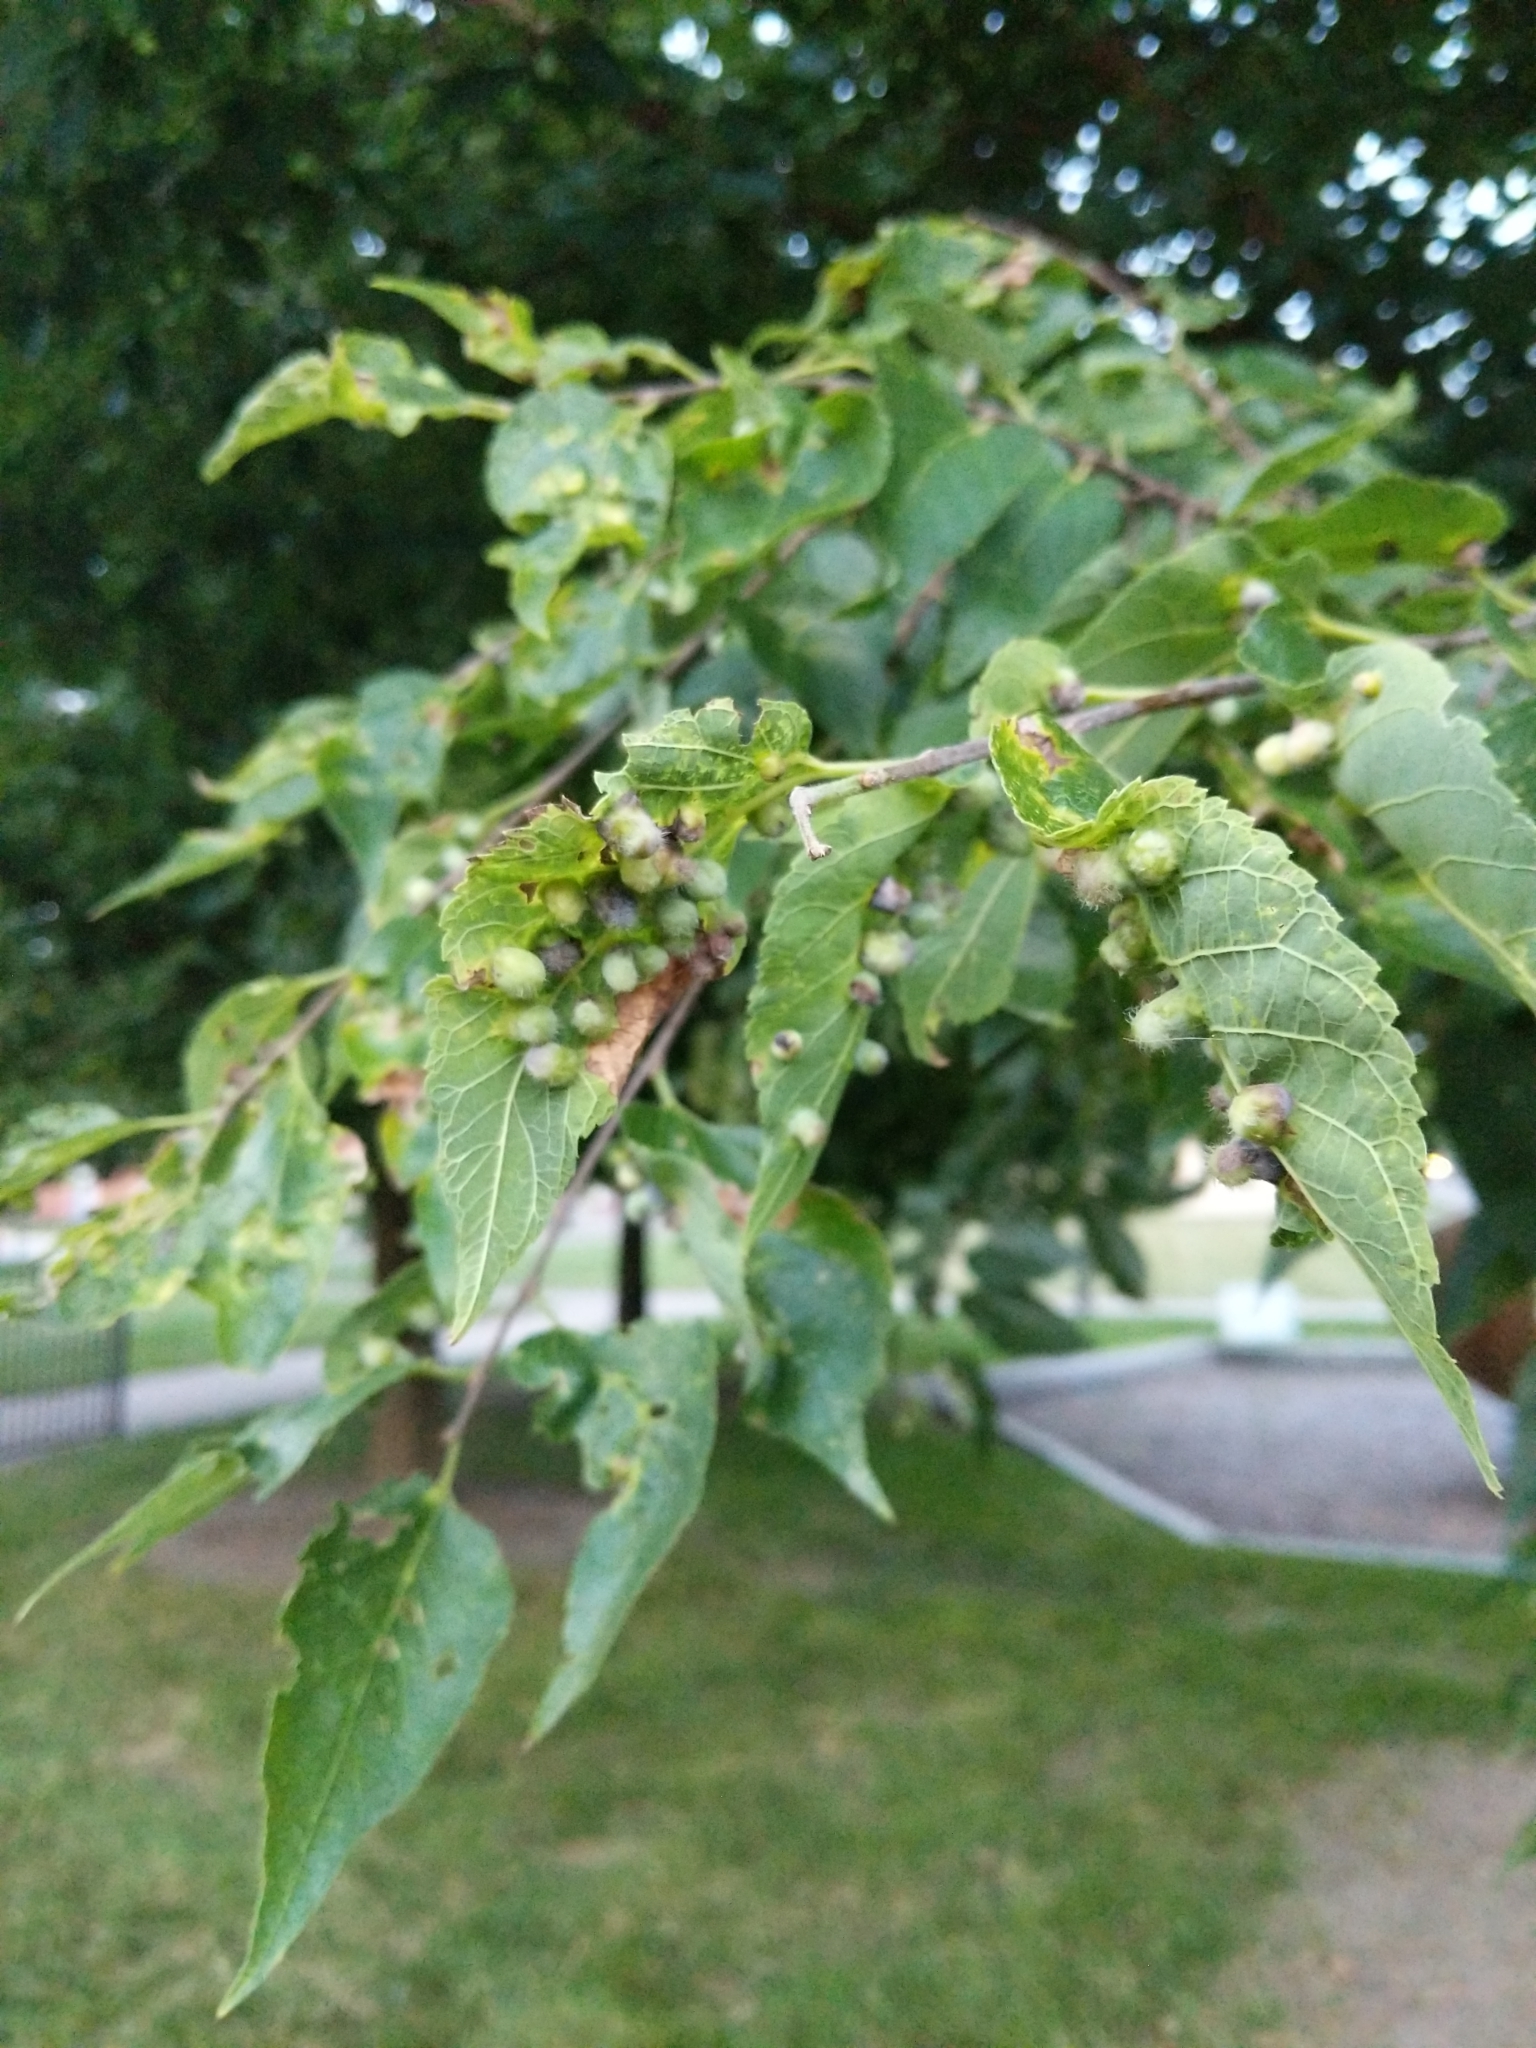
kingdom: Animalia
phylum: Arthropoda
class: Insecta
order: Hemiptera
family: Aphalaridae
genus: Pachypsylla
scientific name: Pachypsylla celtidismamma
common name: Hackberry nipplegall psyllid
